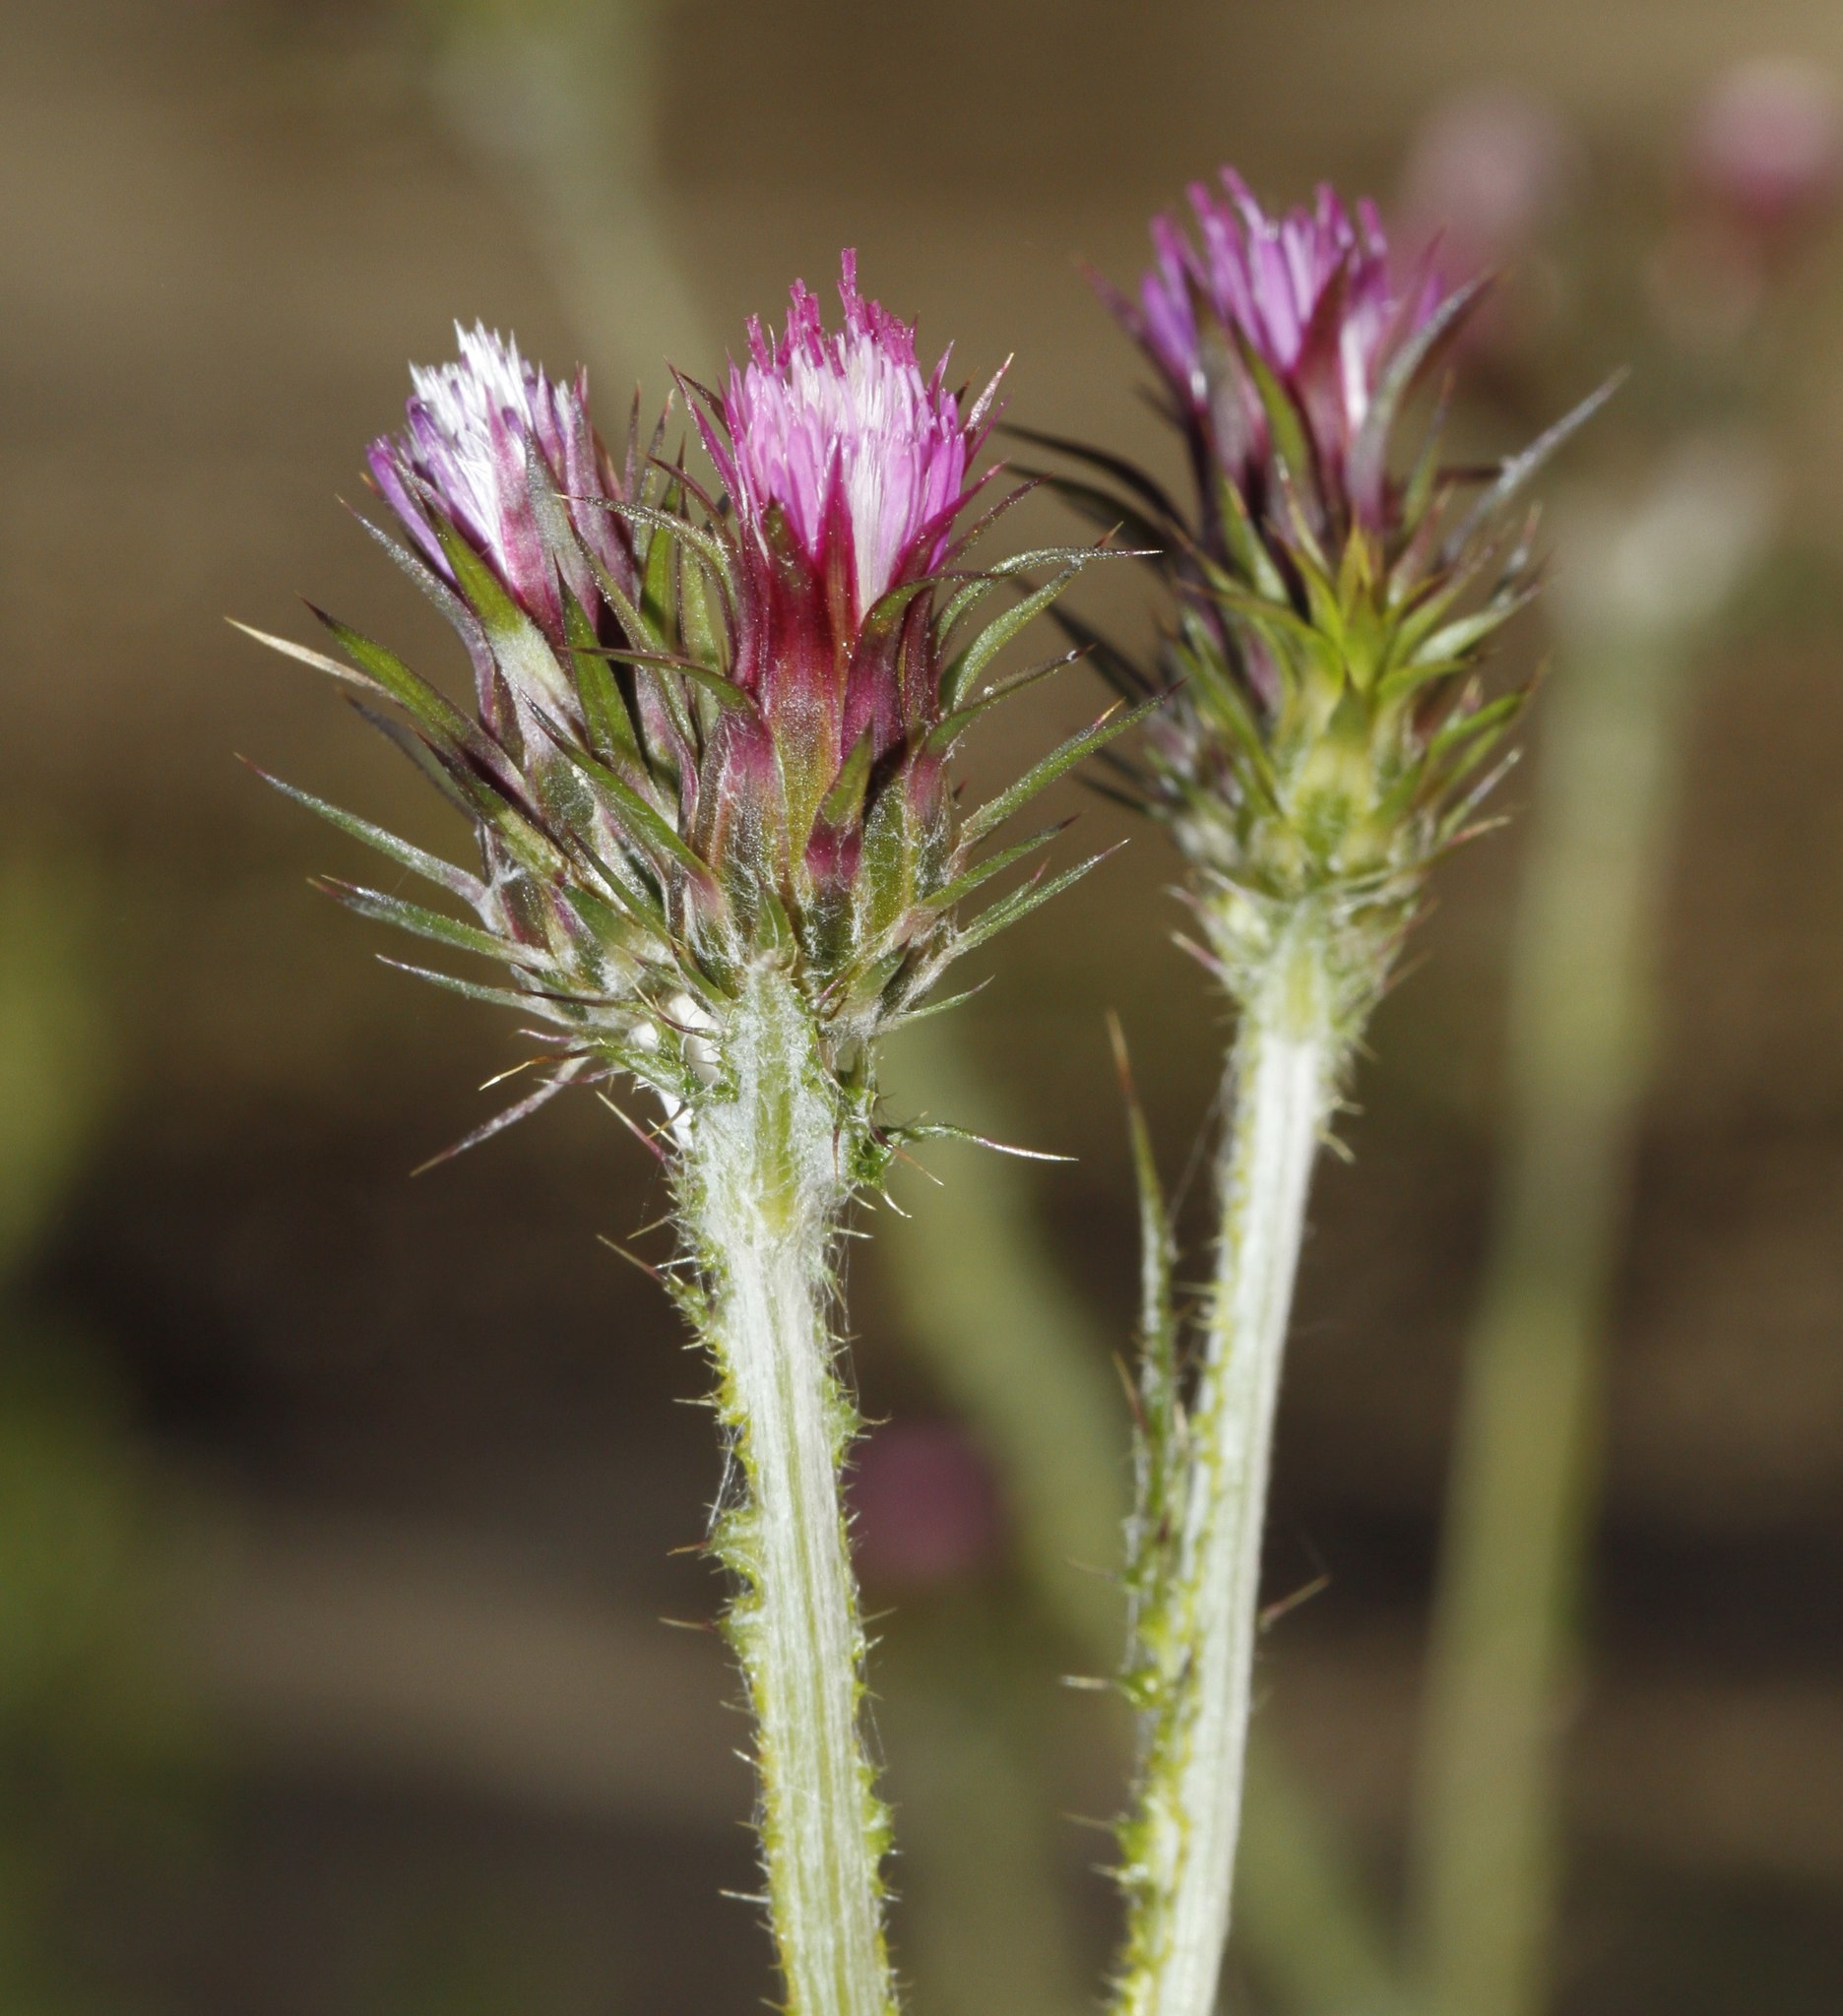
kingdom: Plantae
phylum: Tracheophyta
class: Magnoliopsida
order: Asterales
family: Asteraceae
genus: Carduus
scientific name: Carduus pycnocephalus
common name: Plymouth thistle
